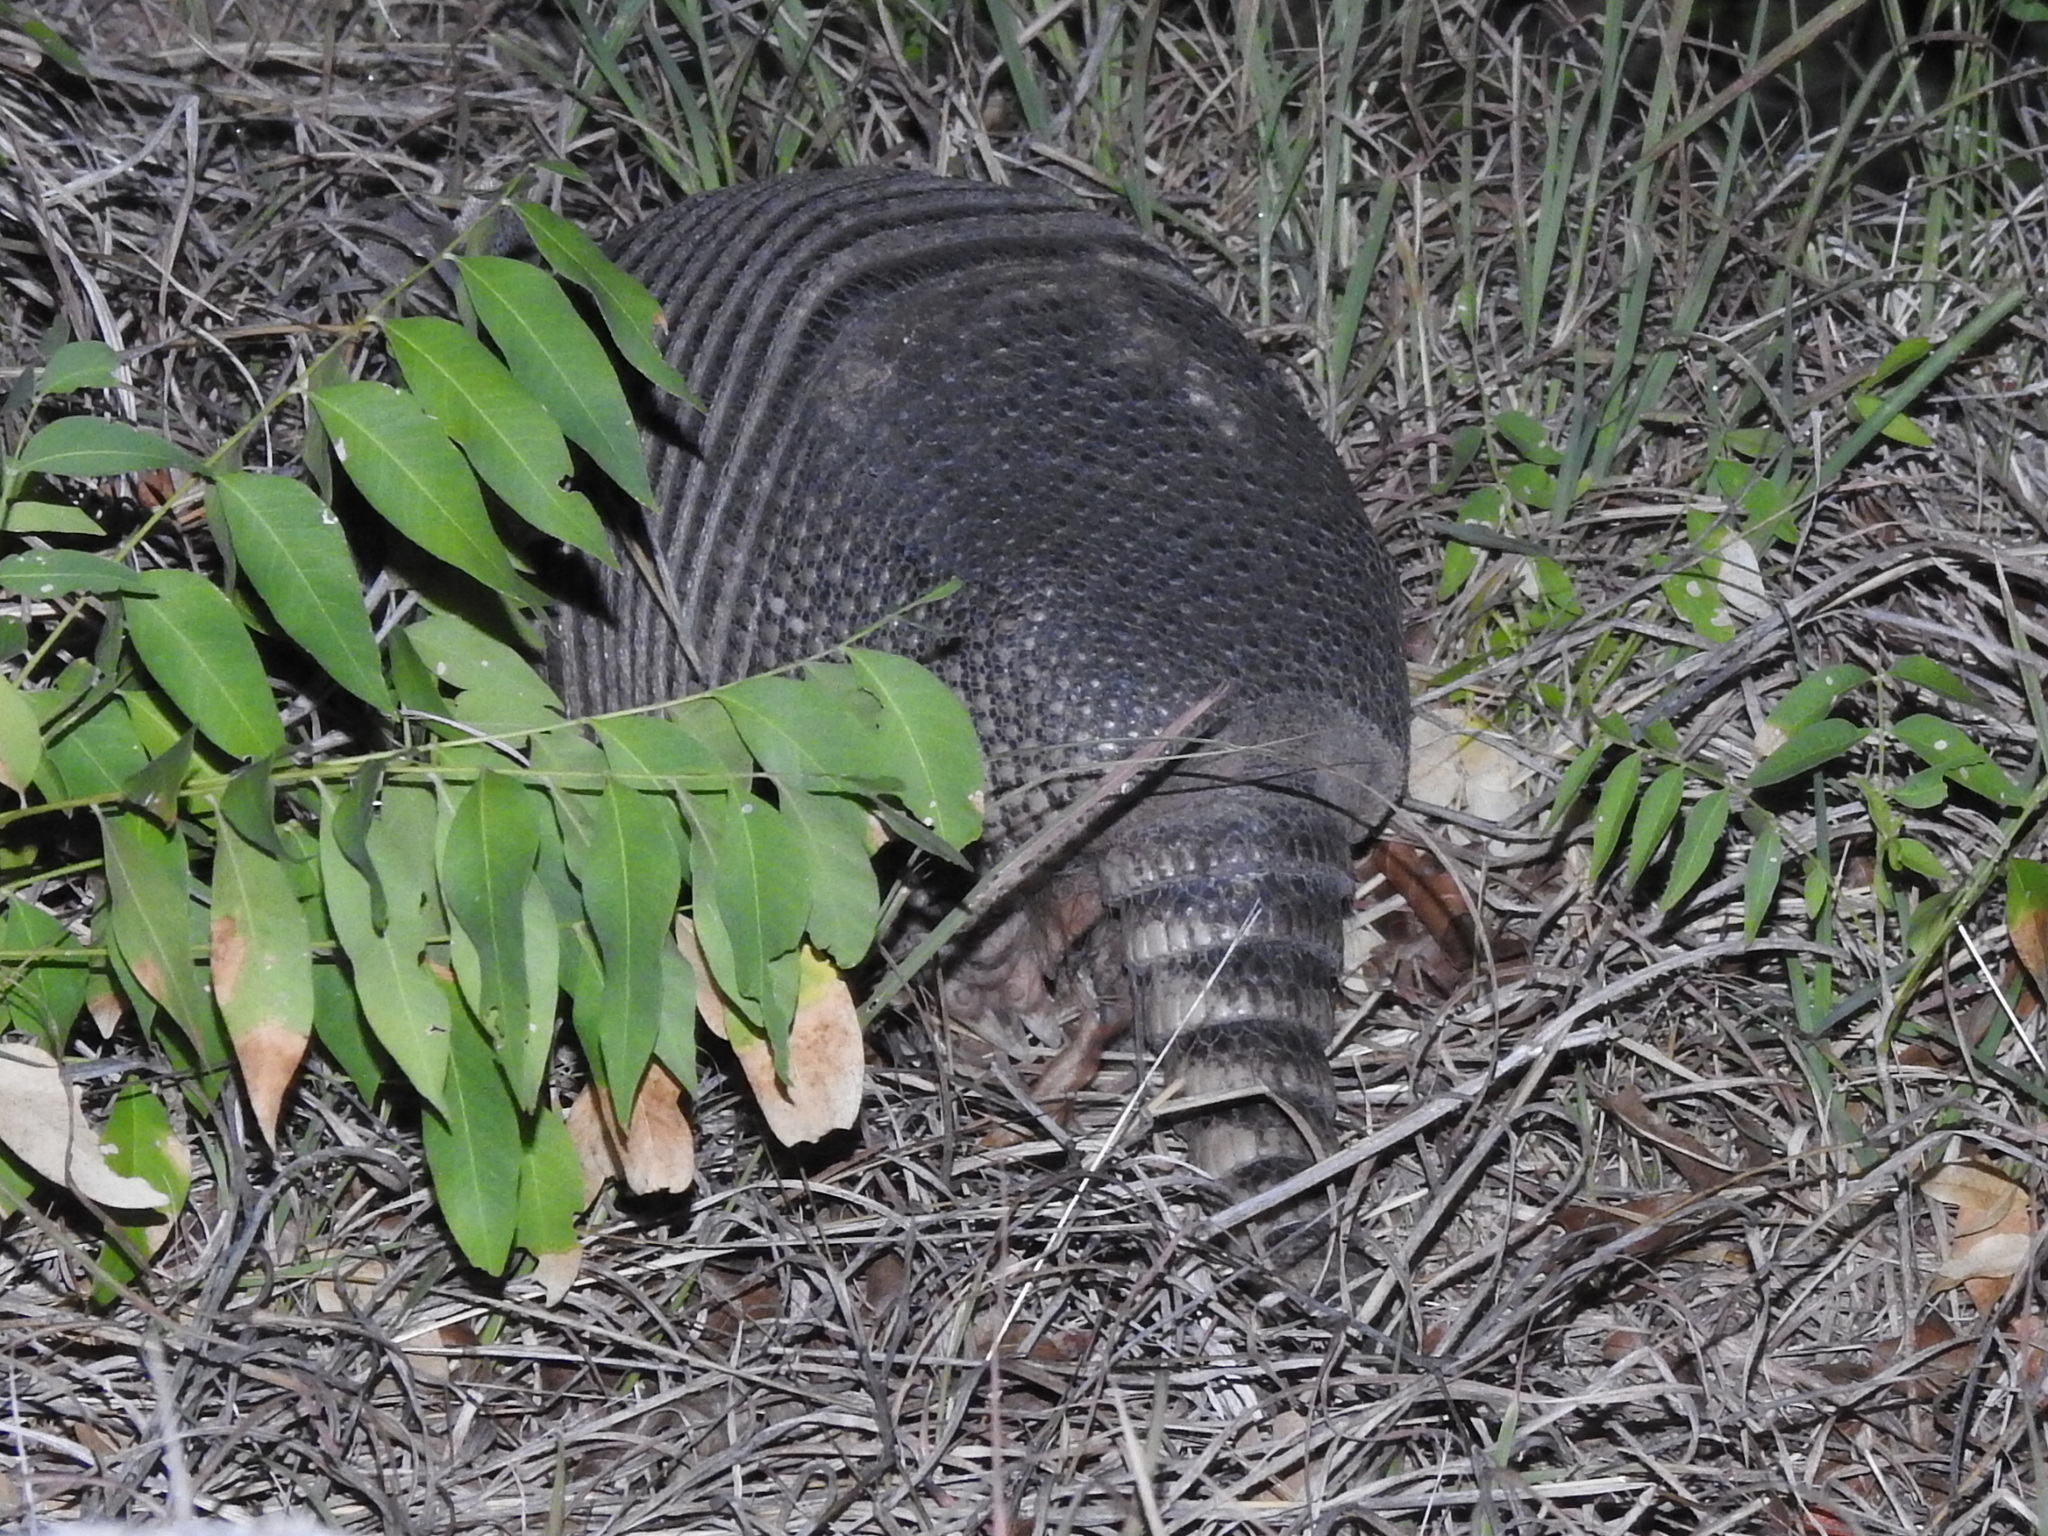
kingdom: Animalia
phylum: Chordata
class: Mammalia
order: Cingulata
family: Dasypodidae
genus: Dasypus
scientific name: Dasypus novemcinctus
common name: Nine-banded armadillo
